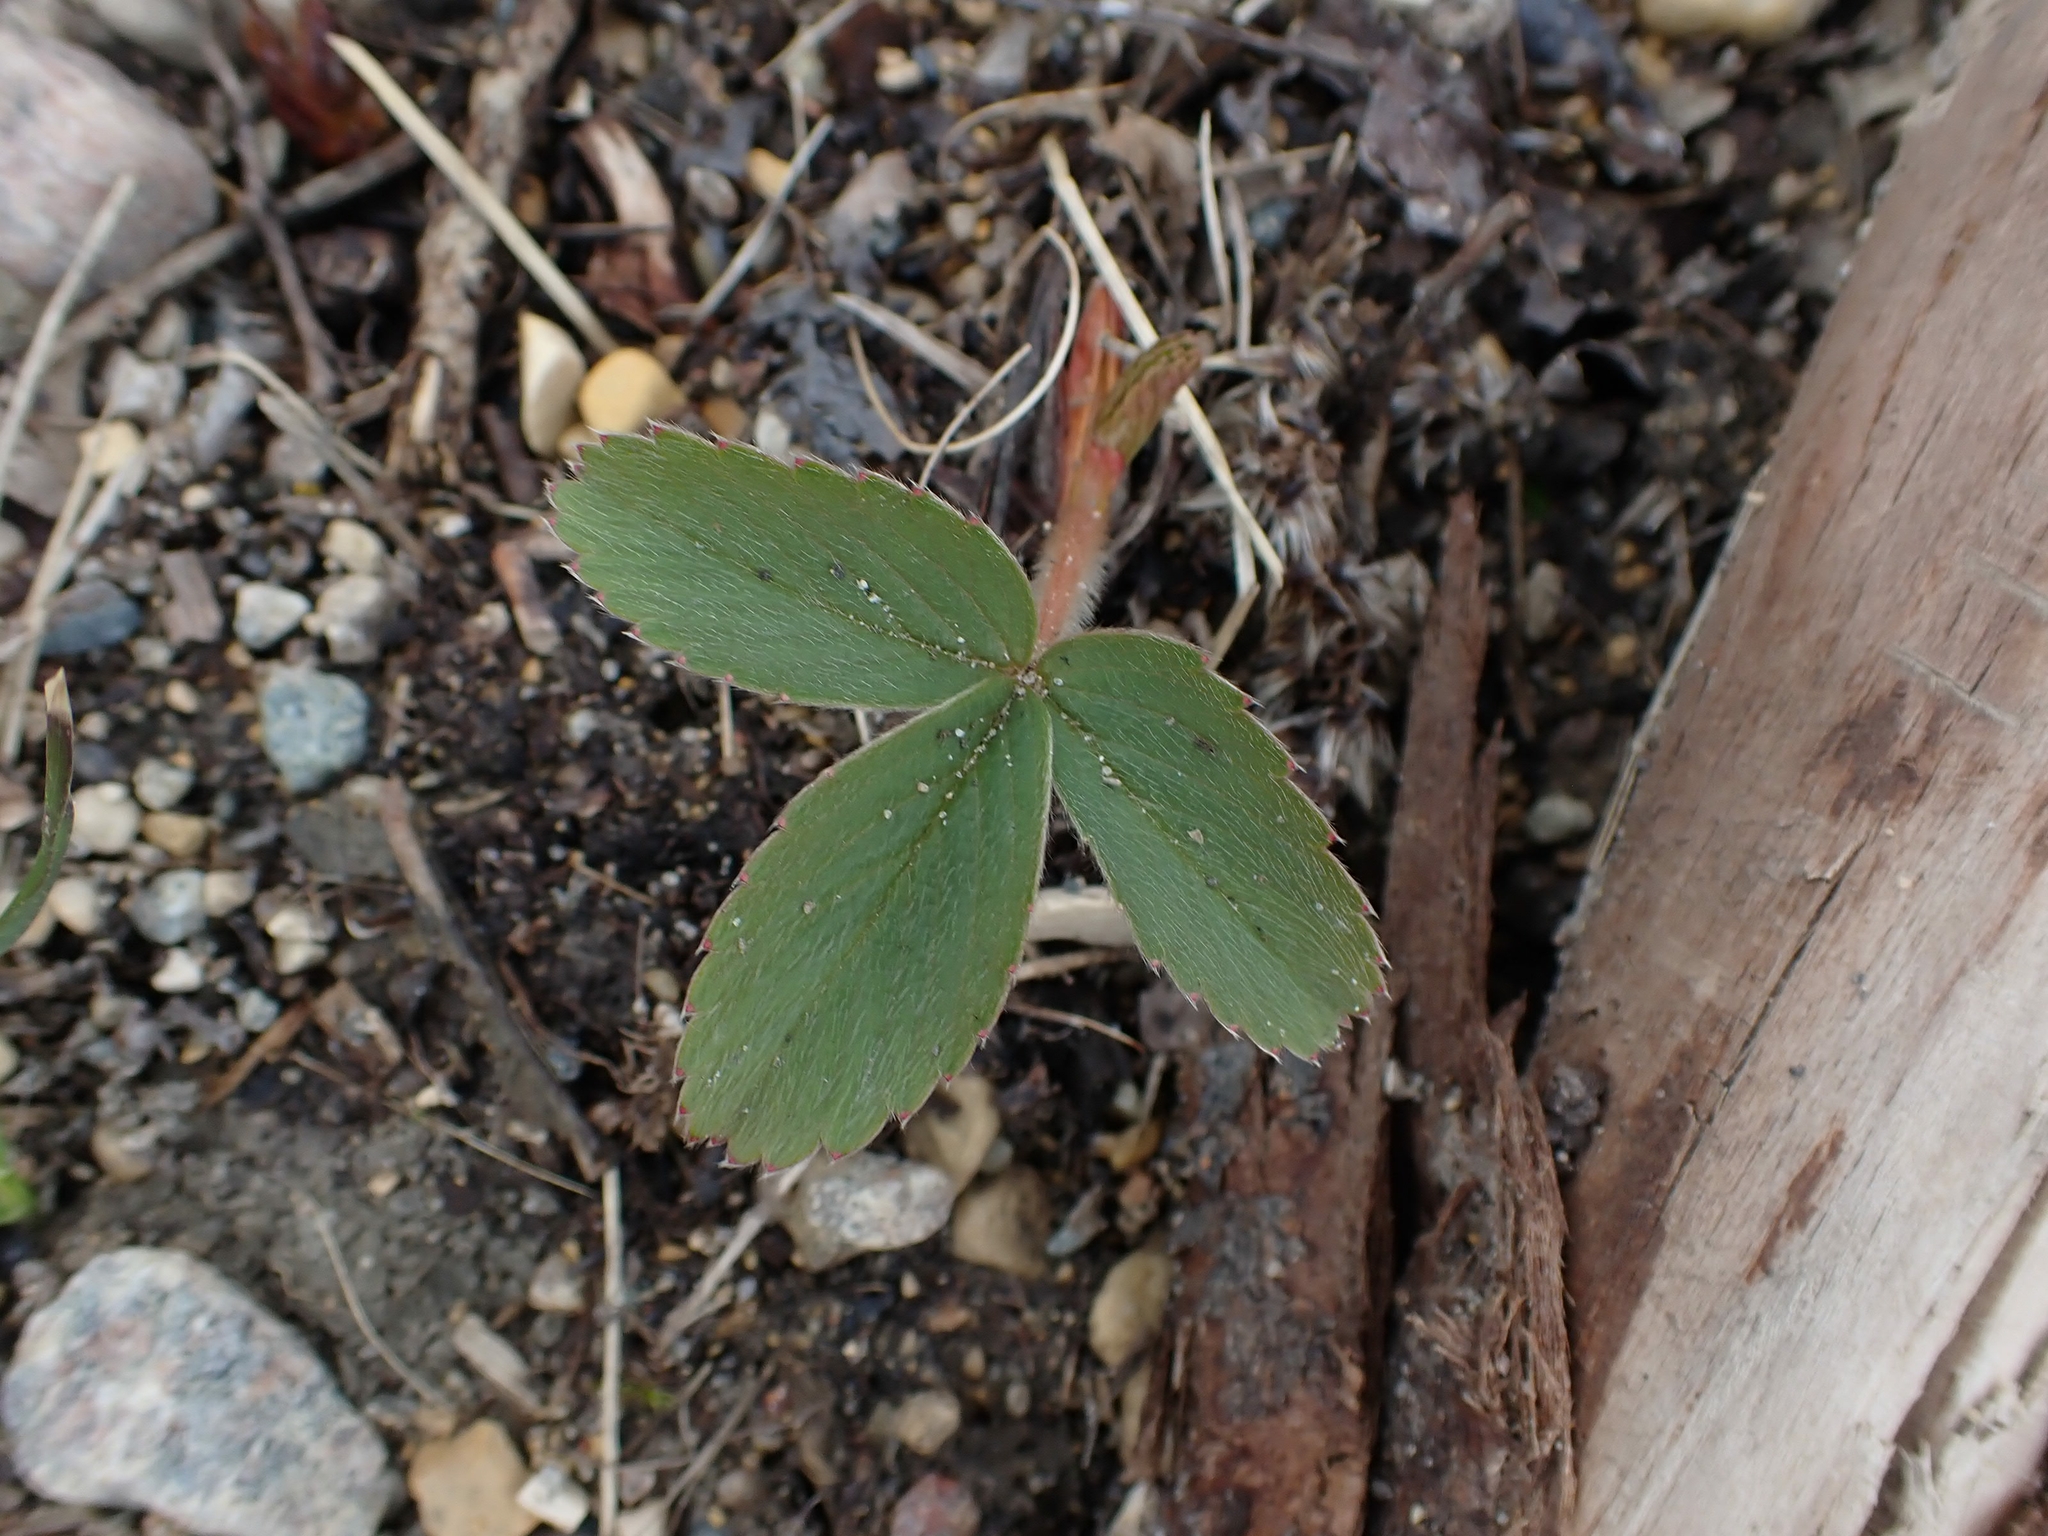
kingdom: Plantae
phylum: Tracheophyta
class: Magnoliopsida
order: Rosales
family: Rosaceae
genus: Fragaria
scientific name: Fragaria virginiana
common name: Thickleaved wild strawberry
